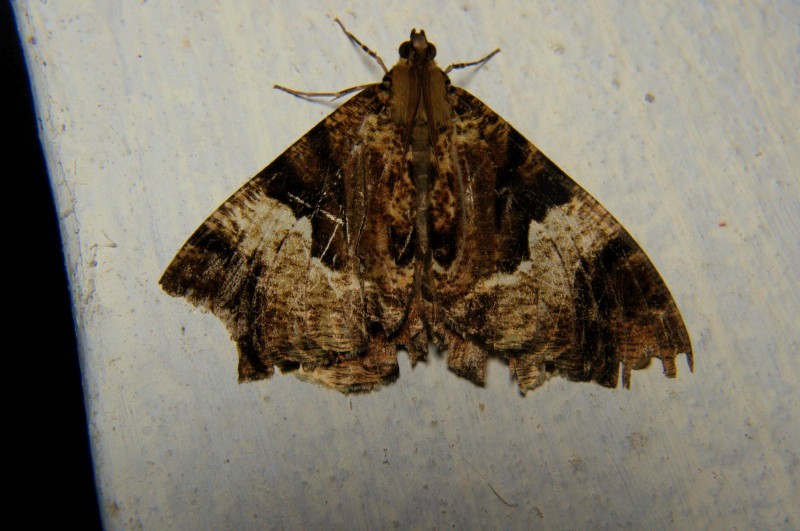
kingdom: Animalia
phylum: Arthropoda
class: Insecta
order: Lepidoptera
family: Geometridae
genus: Xandrames
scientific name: Xandrames dholaria
